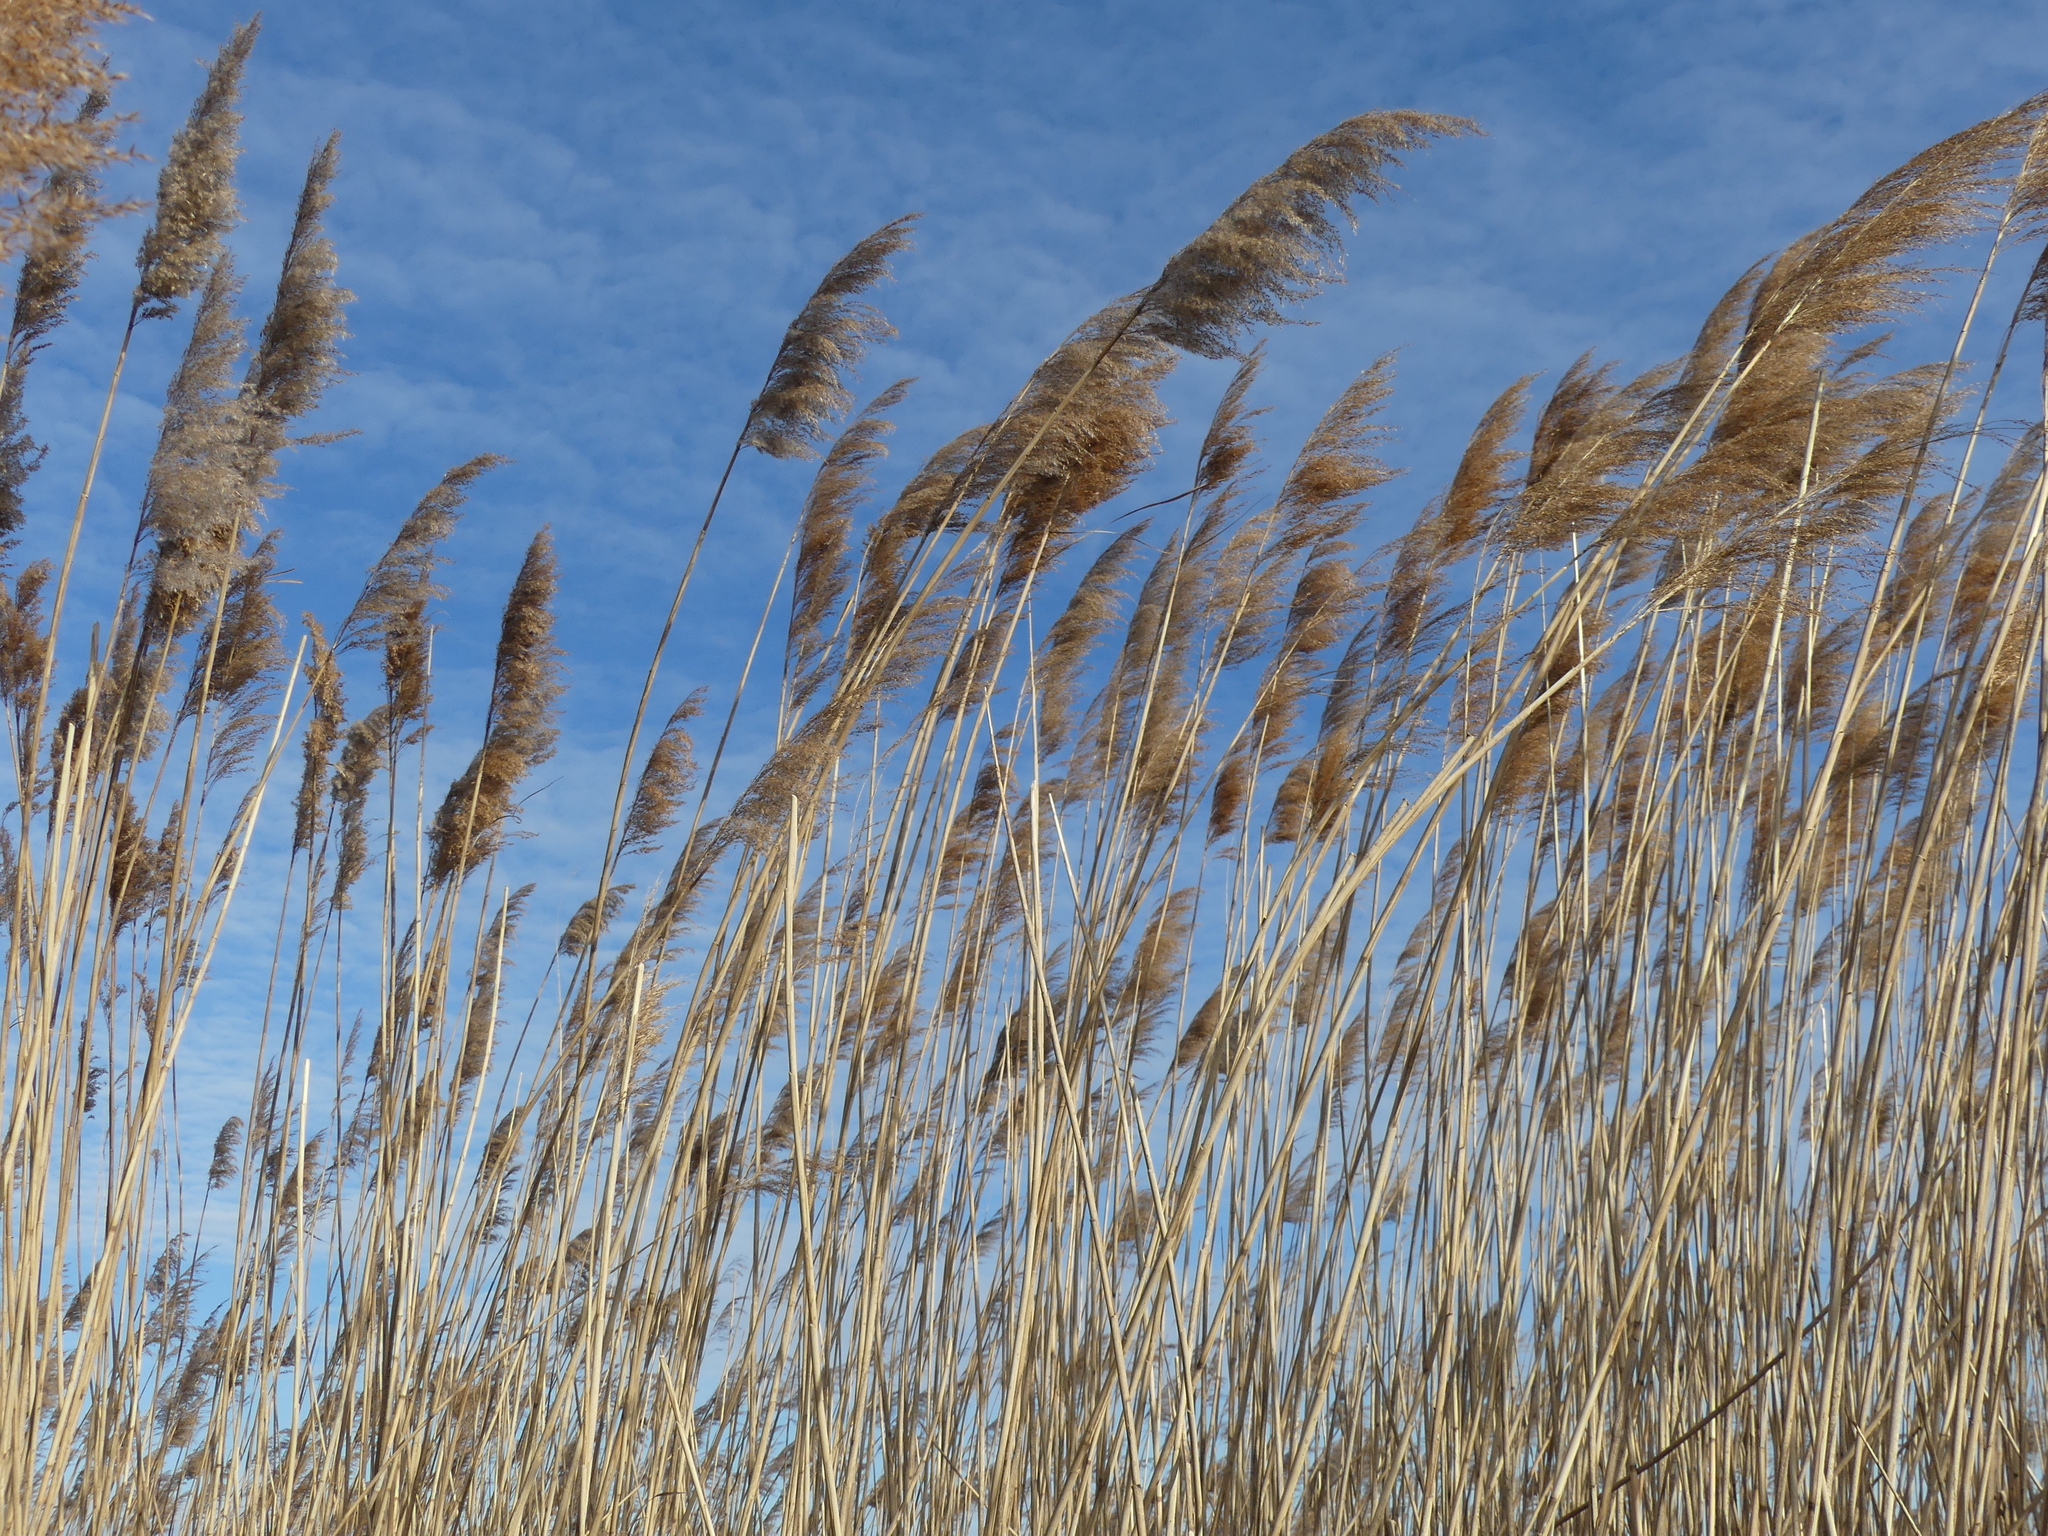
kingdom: Plantae
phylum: Tracheophyta
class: Liliopsida
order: Poales
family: Poaceae
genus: Phragmites
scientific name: Phragmites australis
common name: Common reed
